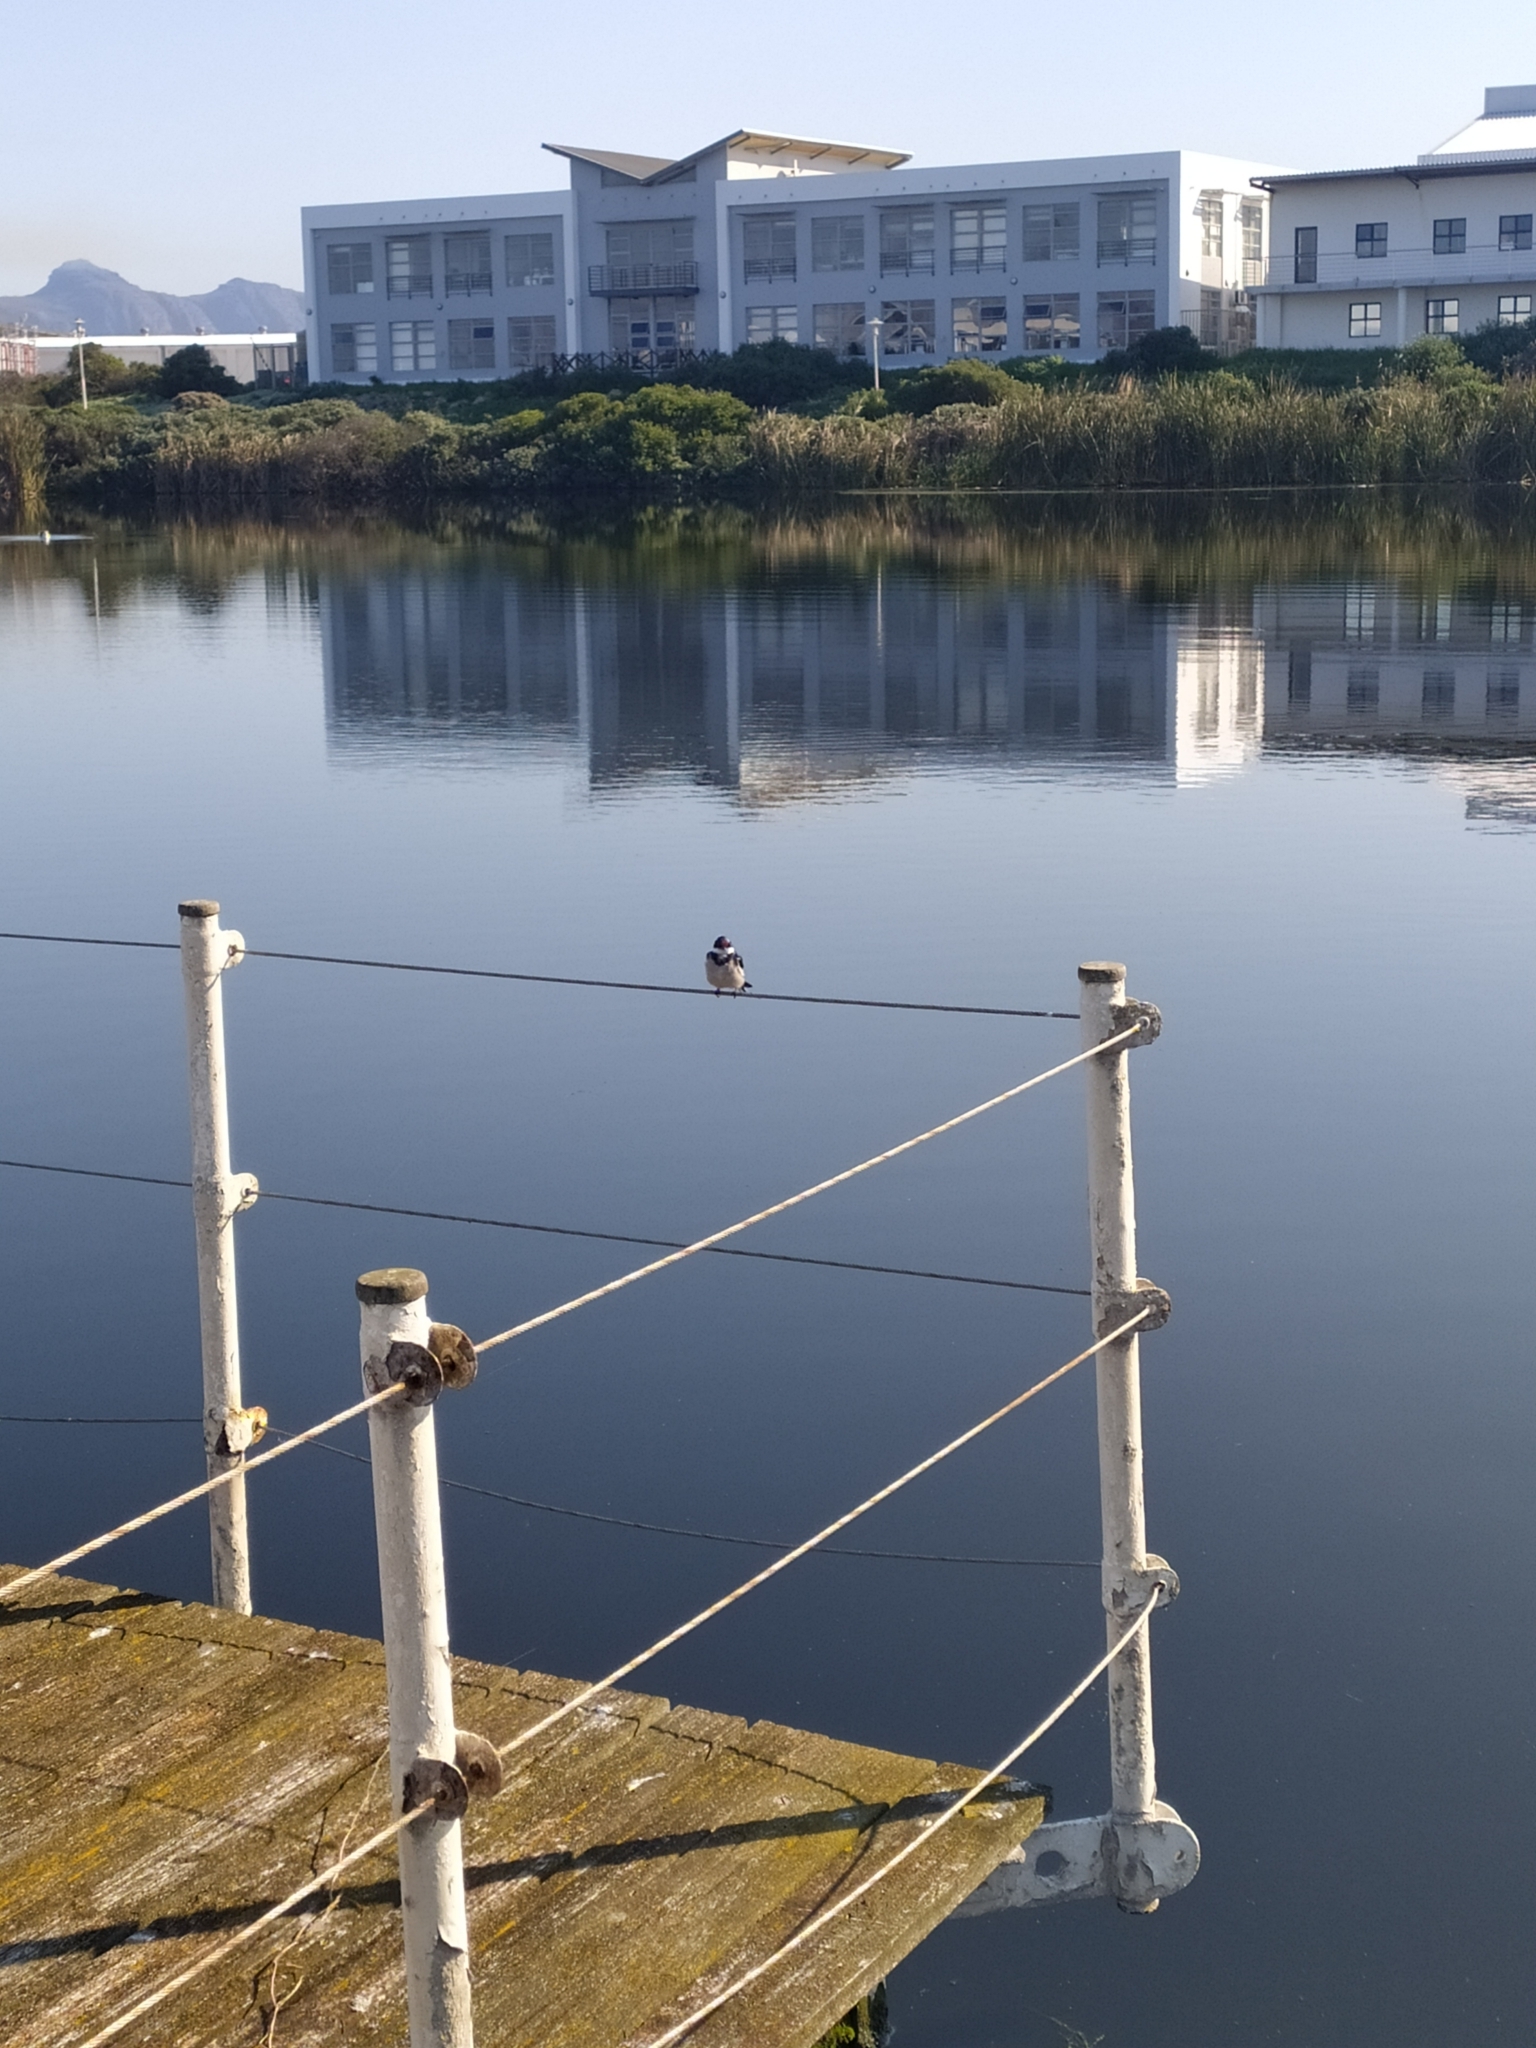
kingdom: Animalia
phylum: Chordata
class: Aves
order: Passeriformes
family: Hirundinidae
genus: Hirundo
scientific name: Hirundo albigularis
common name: White-throated swallow
